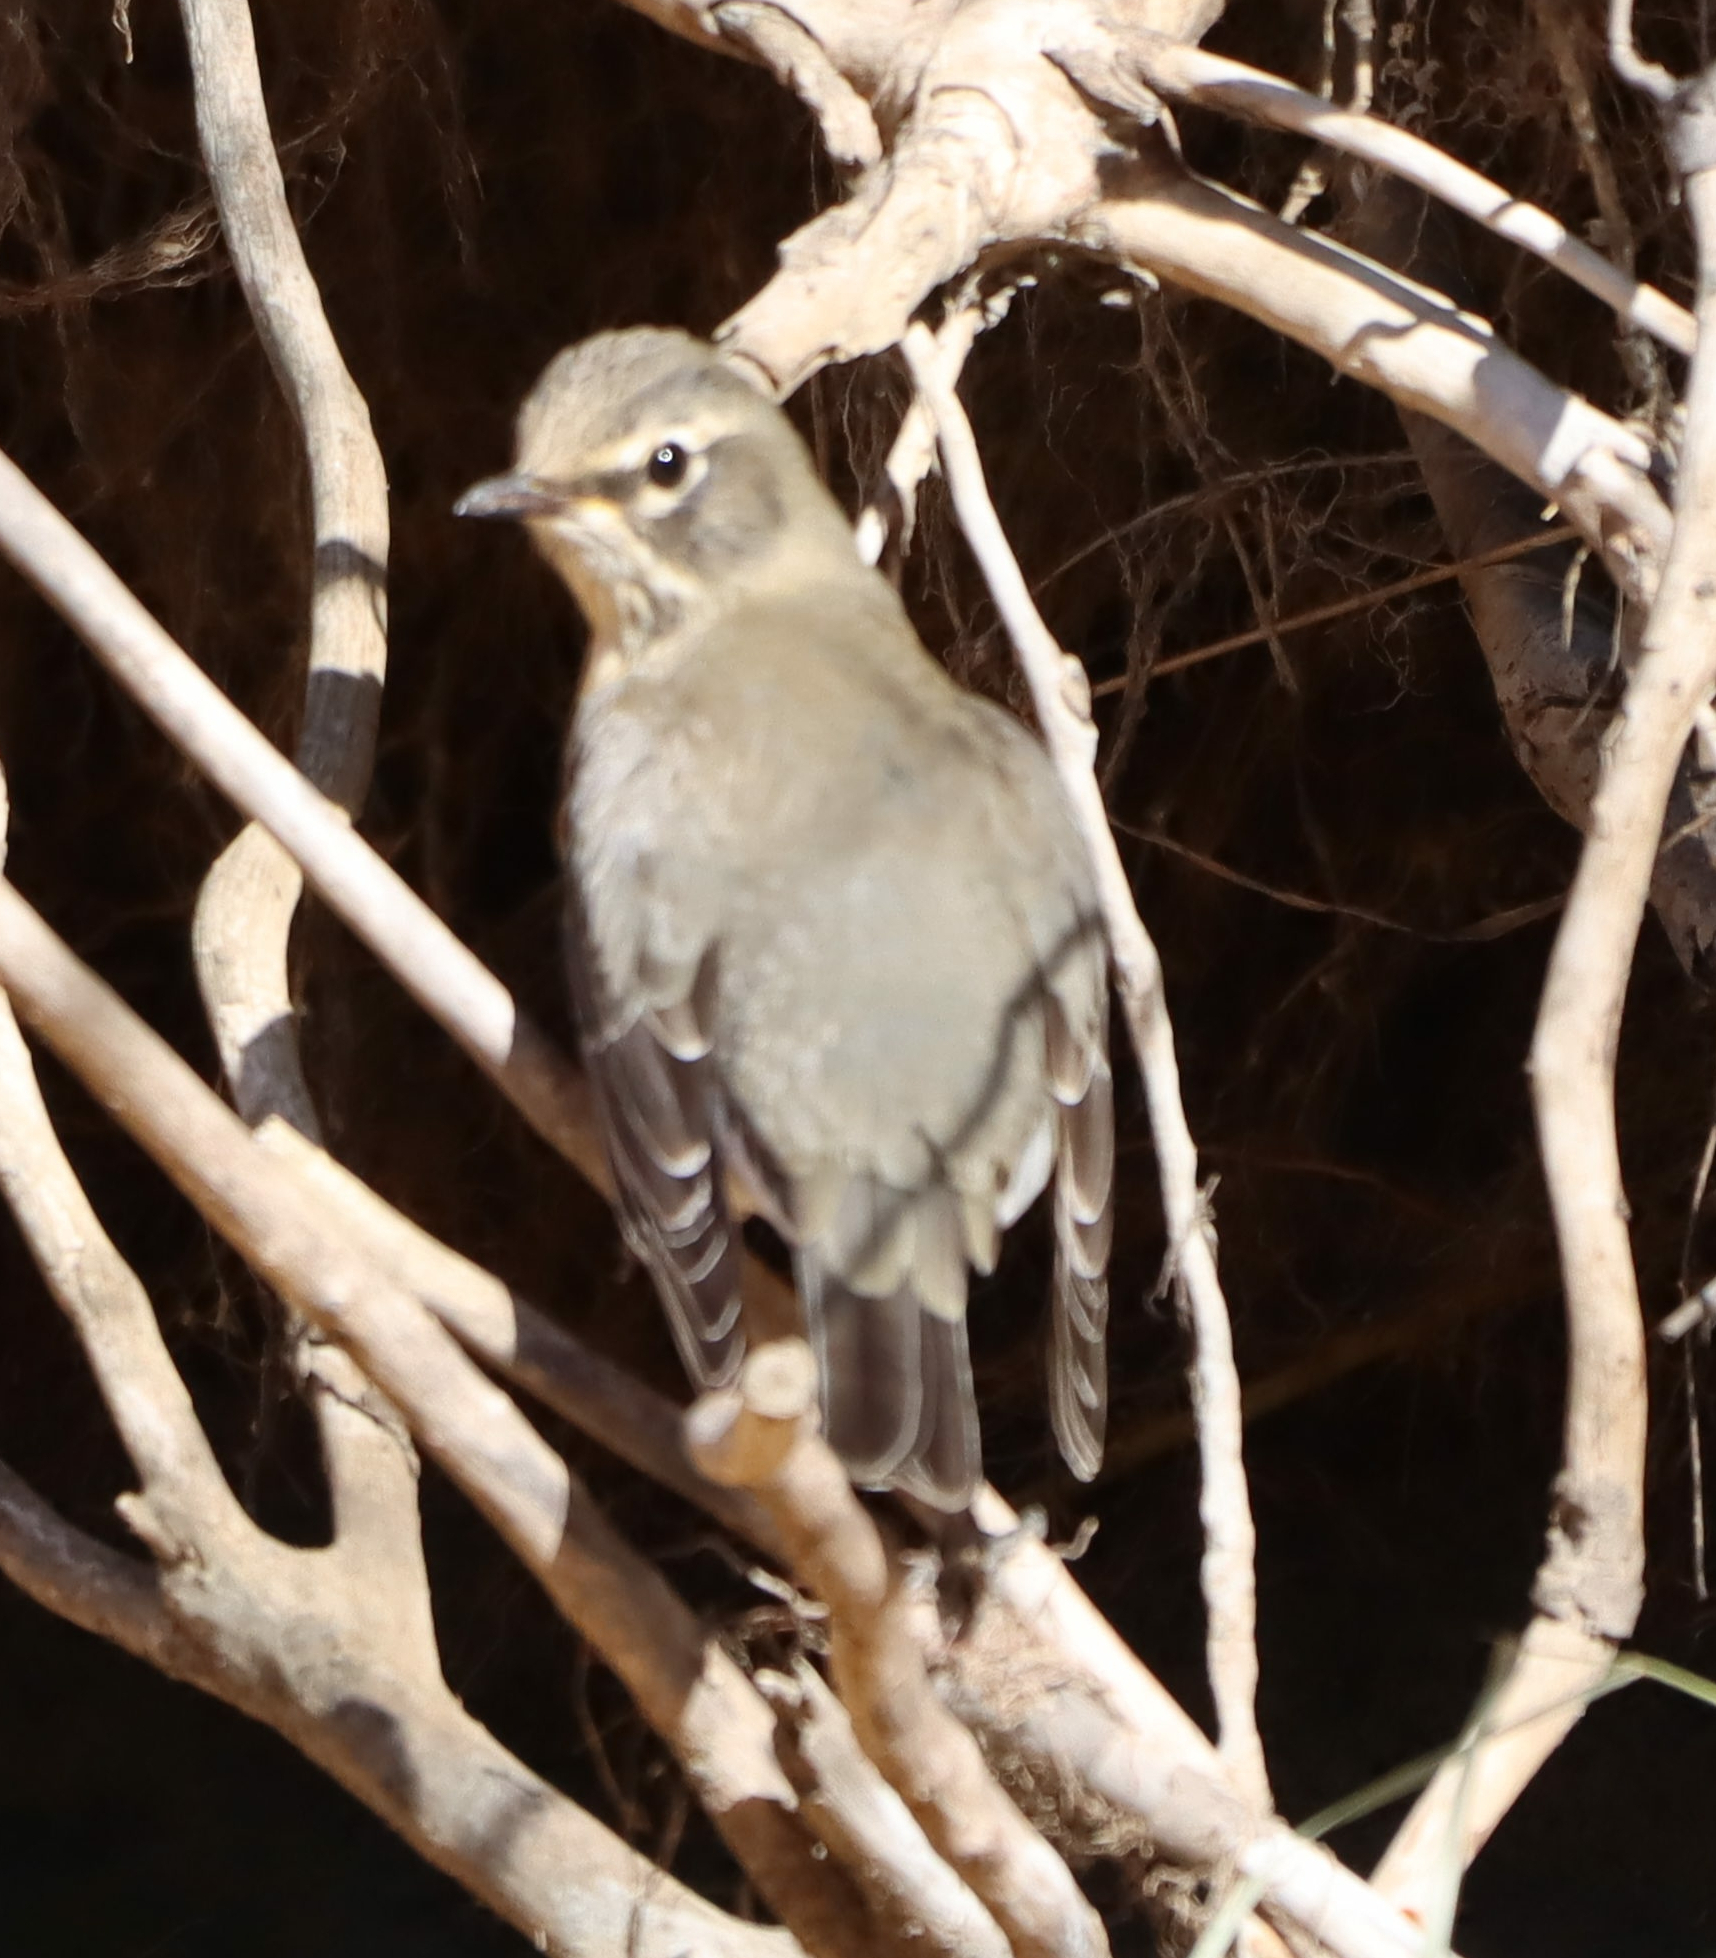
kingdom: Animalia
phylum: Chordata
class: Aves
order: Passeriformes
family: Turdidae
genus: Turdus
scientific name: Turdus migratorius
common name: American robin
